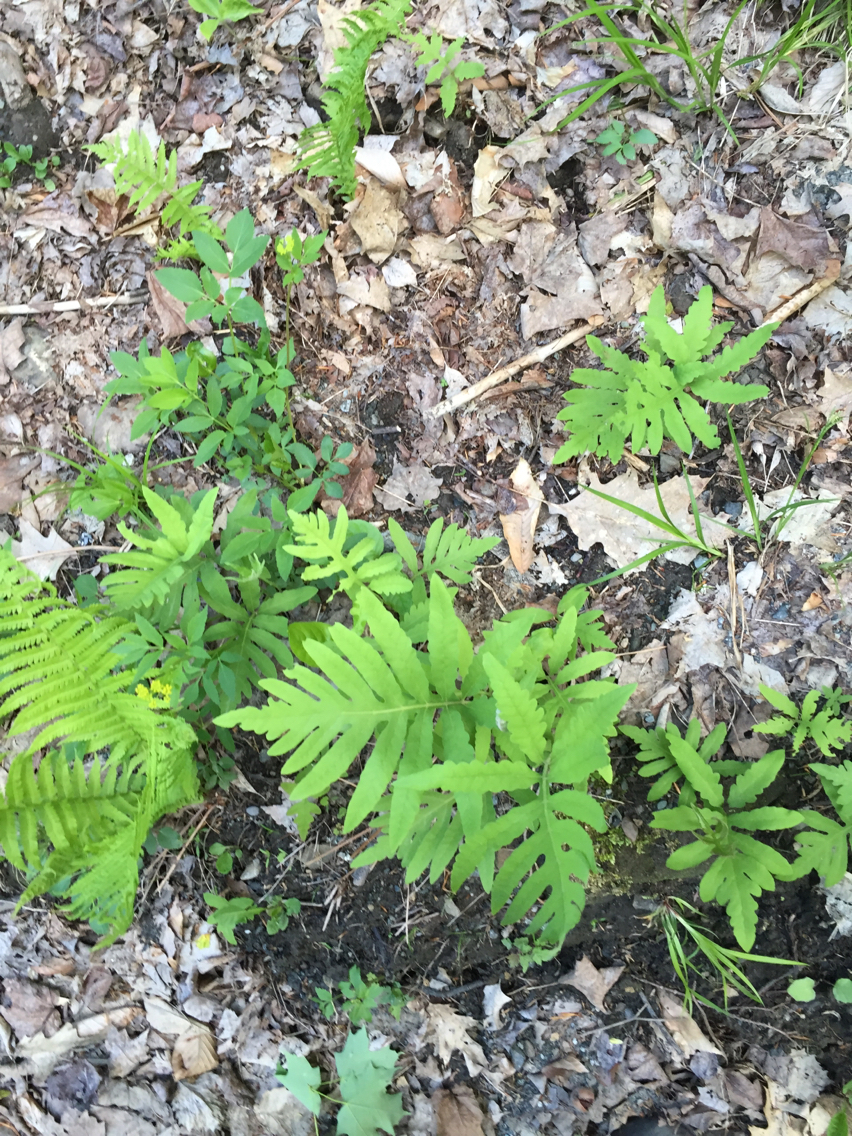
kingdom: Plantae
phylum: Tracheophyta
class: Polypodiopsida
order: Polypodiales
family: Onocleaceae
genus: Onoclea
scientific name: Onoclea sensibilis
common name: Sensitive fern
